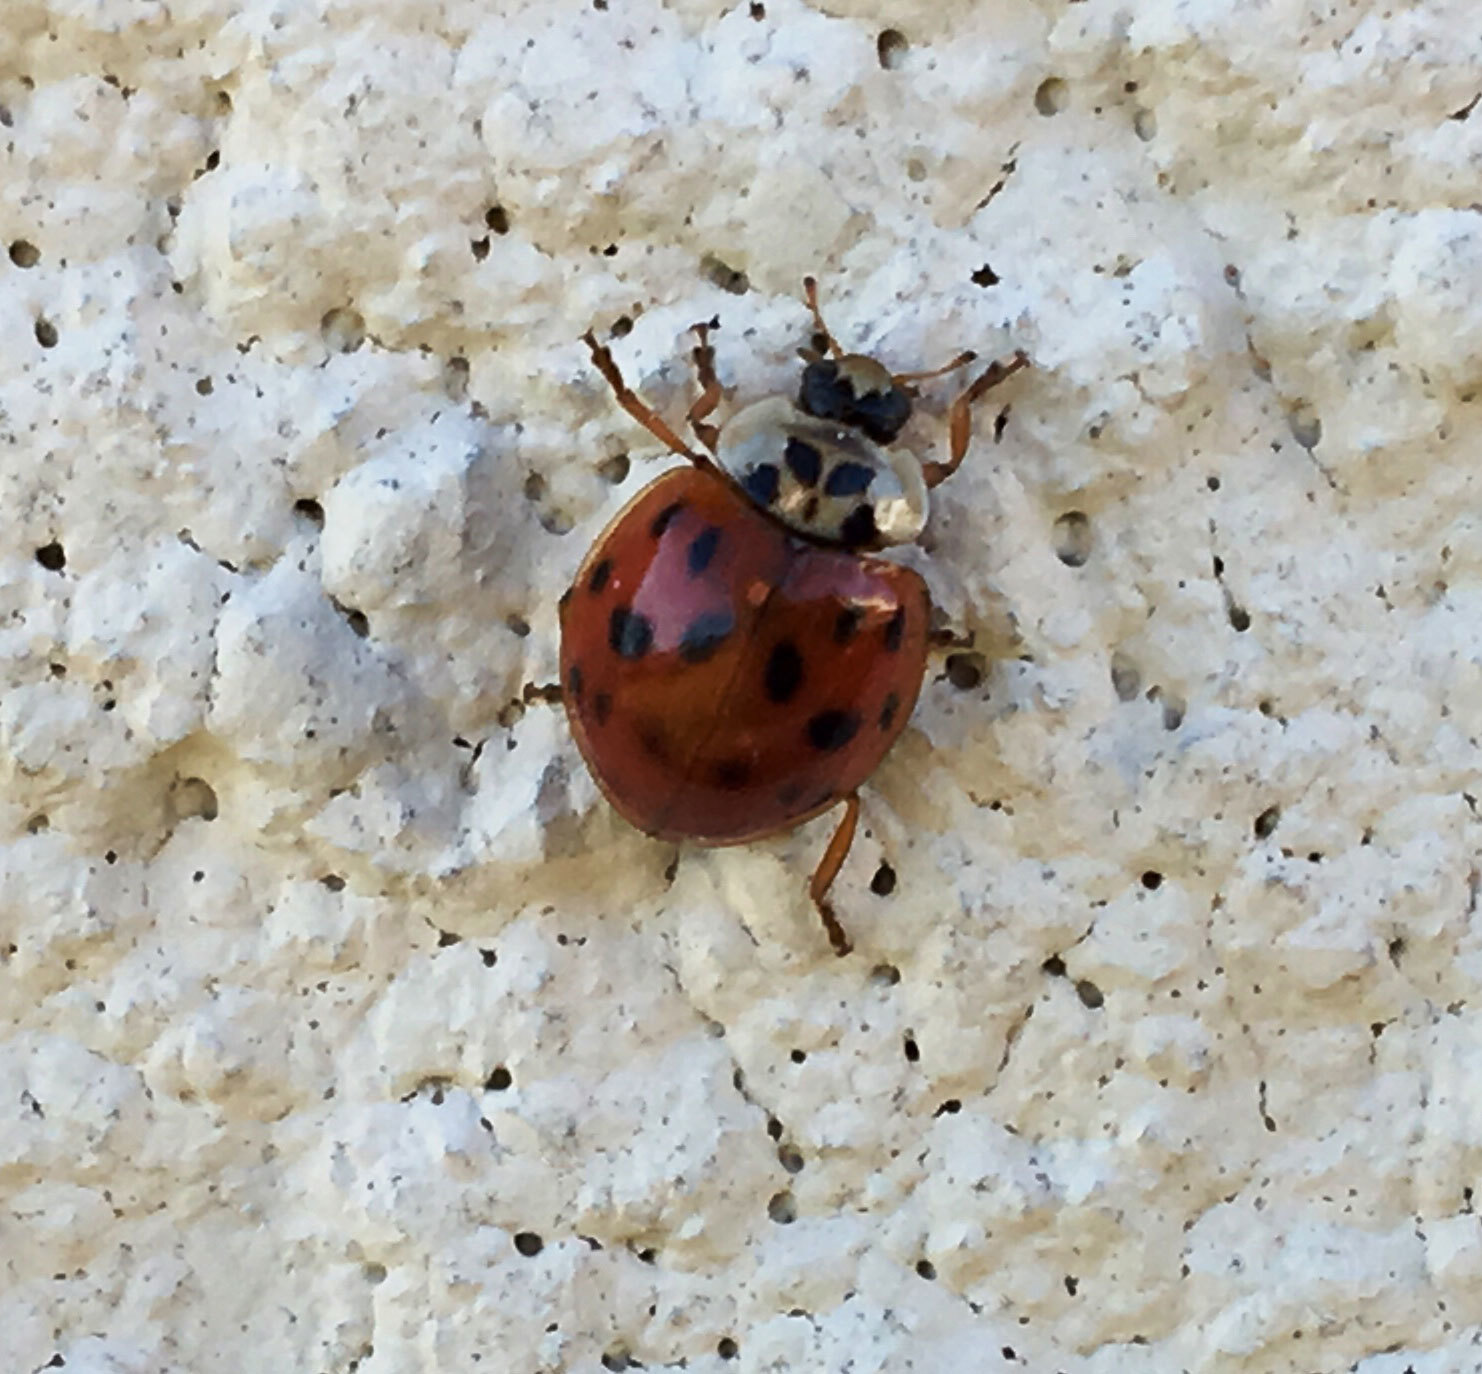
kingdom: Animalia
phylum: Arthropoda
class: Insecta
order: Coleoptera
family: Coccinellidae
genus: Harmonia
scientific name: Harmonia axyridis
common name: Harlequin ladybird
